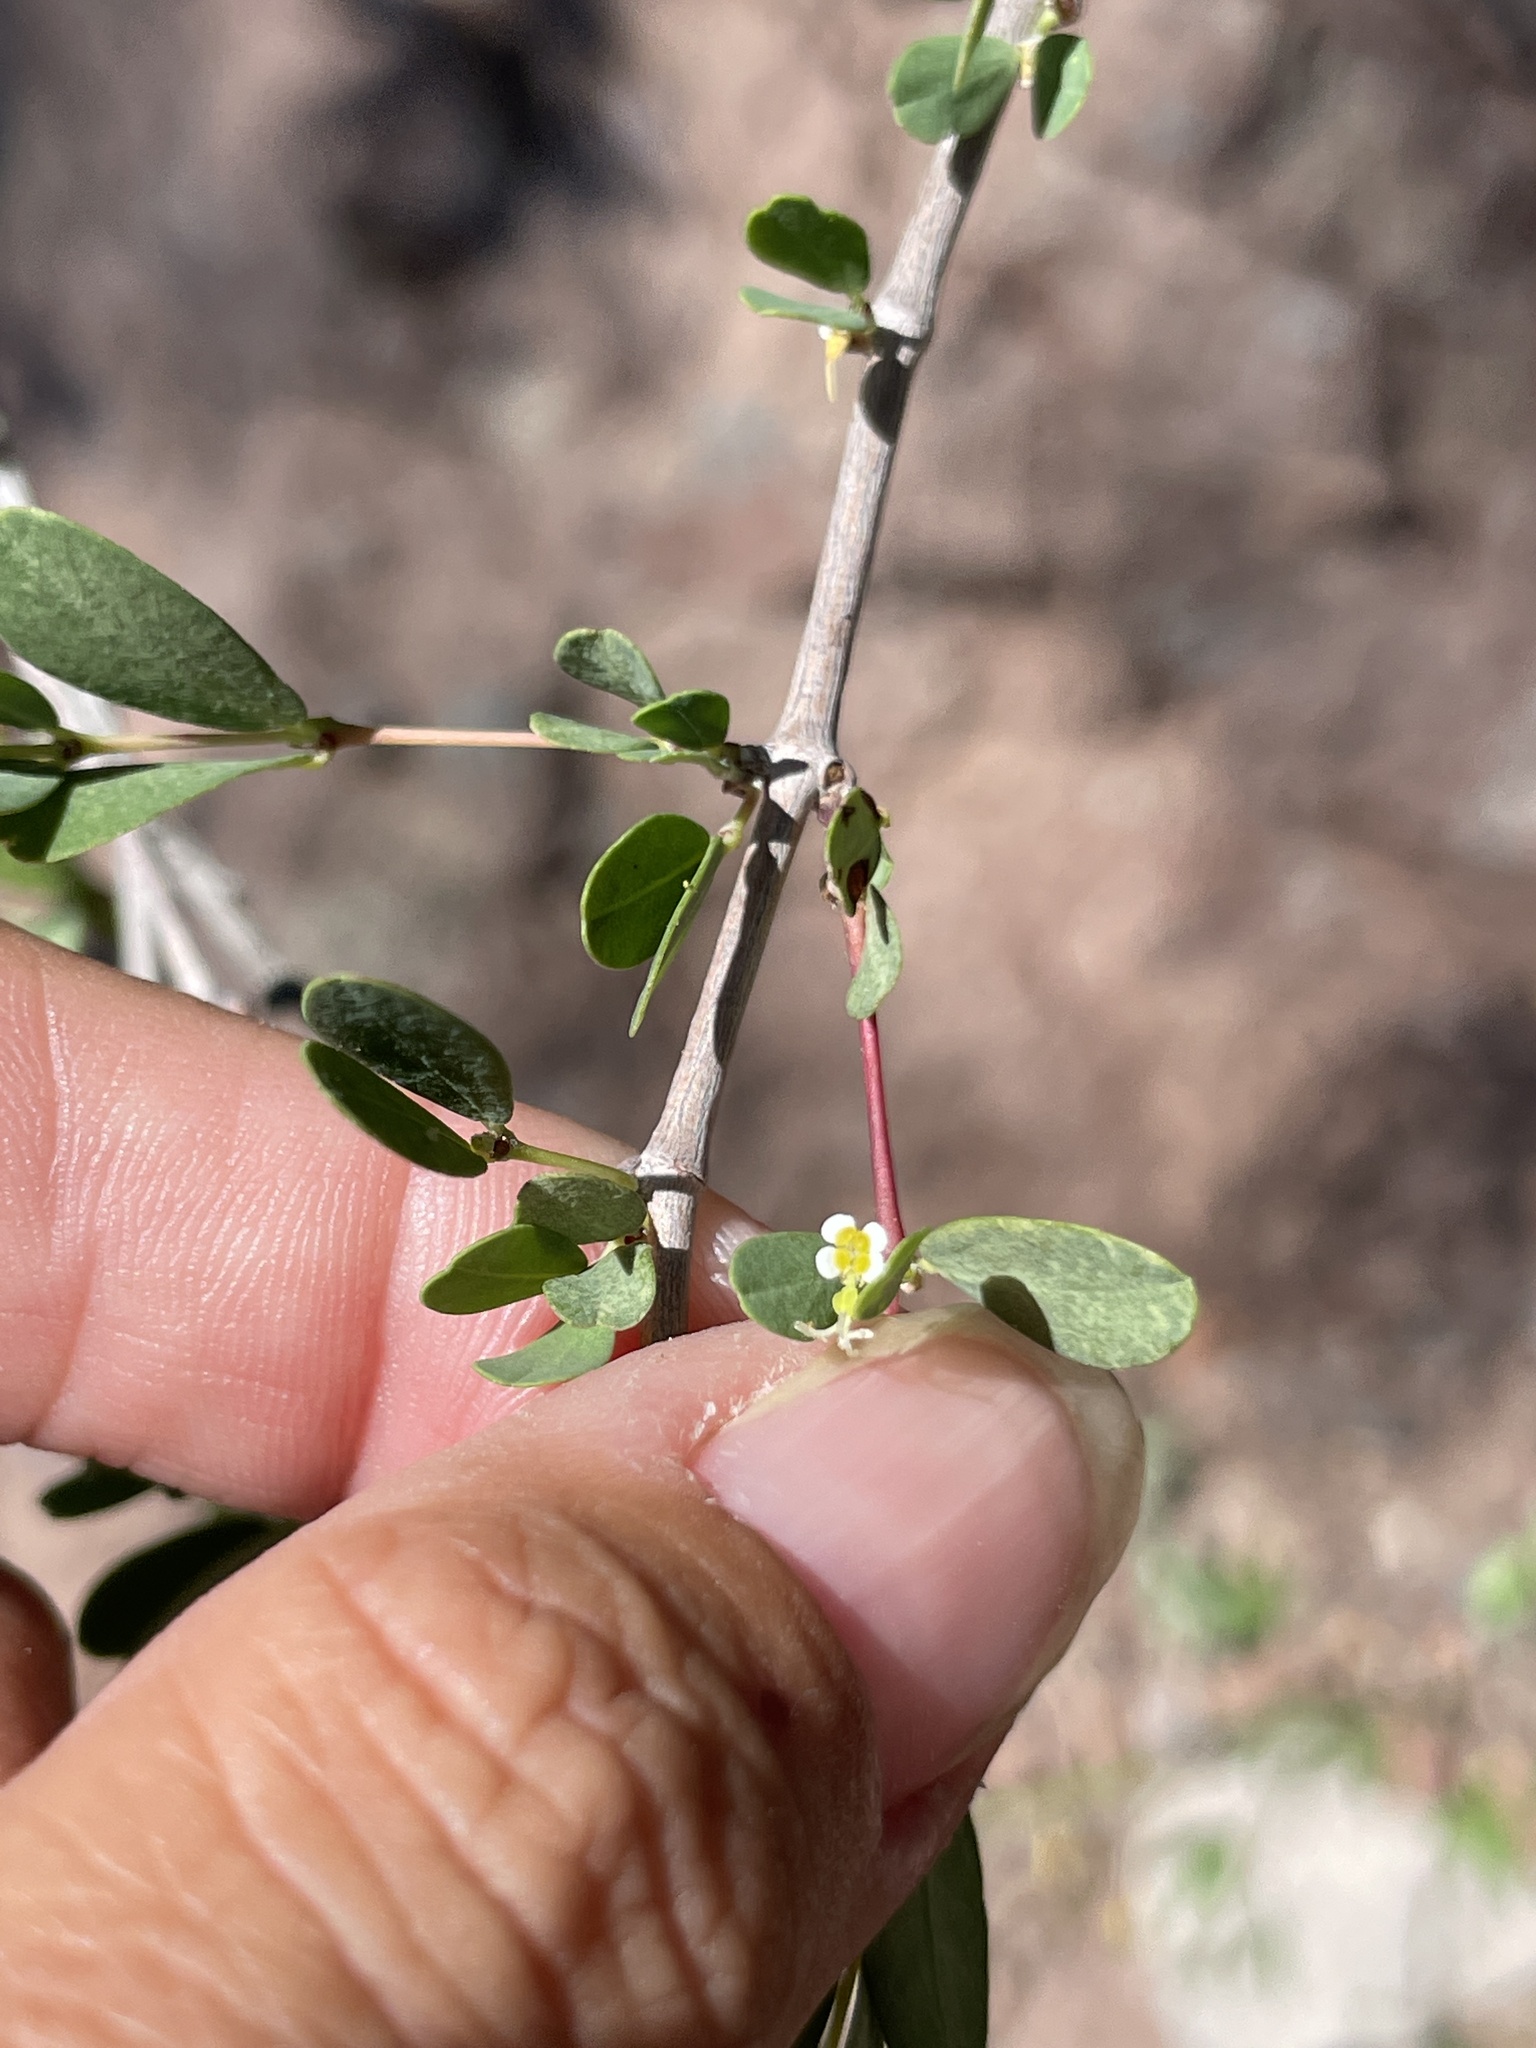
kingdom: Plantae
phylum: Tracheophyta
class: Magnoliopsida
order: Malpighiales
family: Euphorbiaceae
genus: Euphorbia
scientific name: Euphorbia magdalenae
